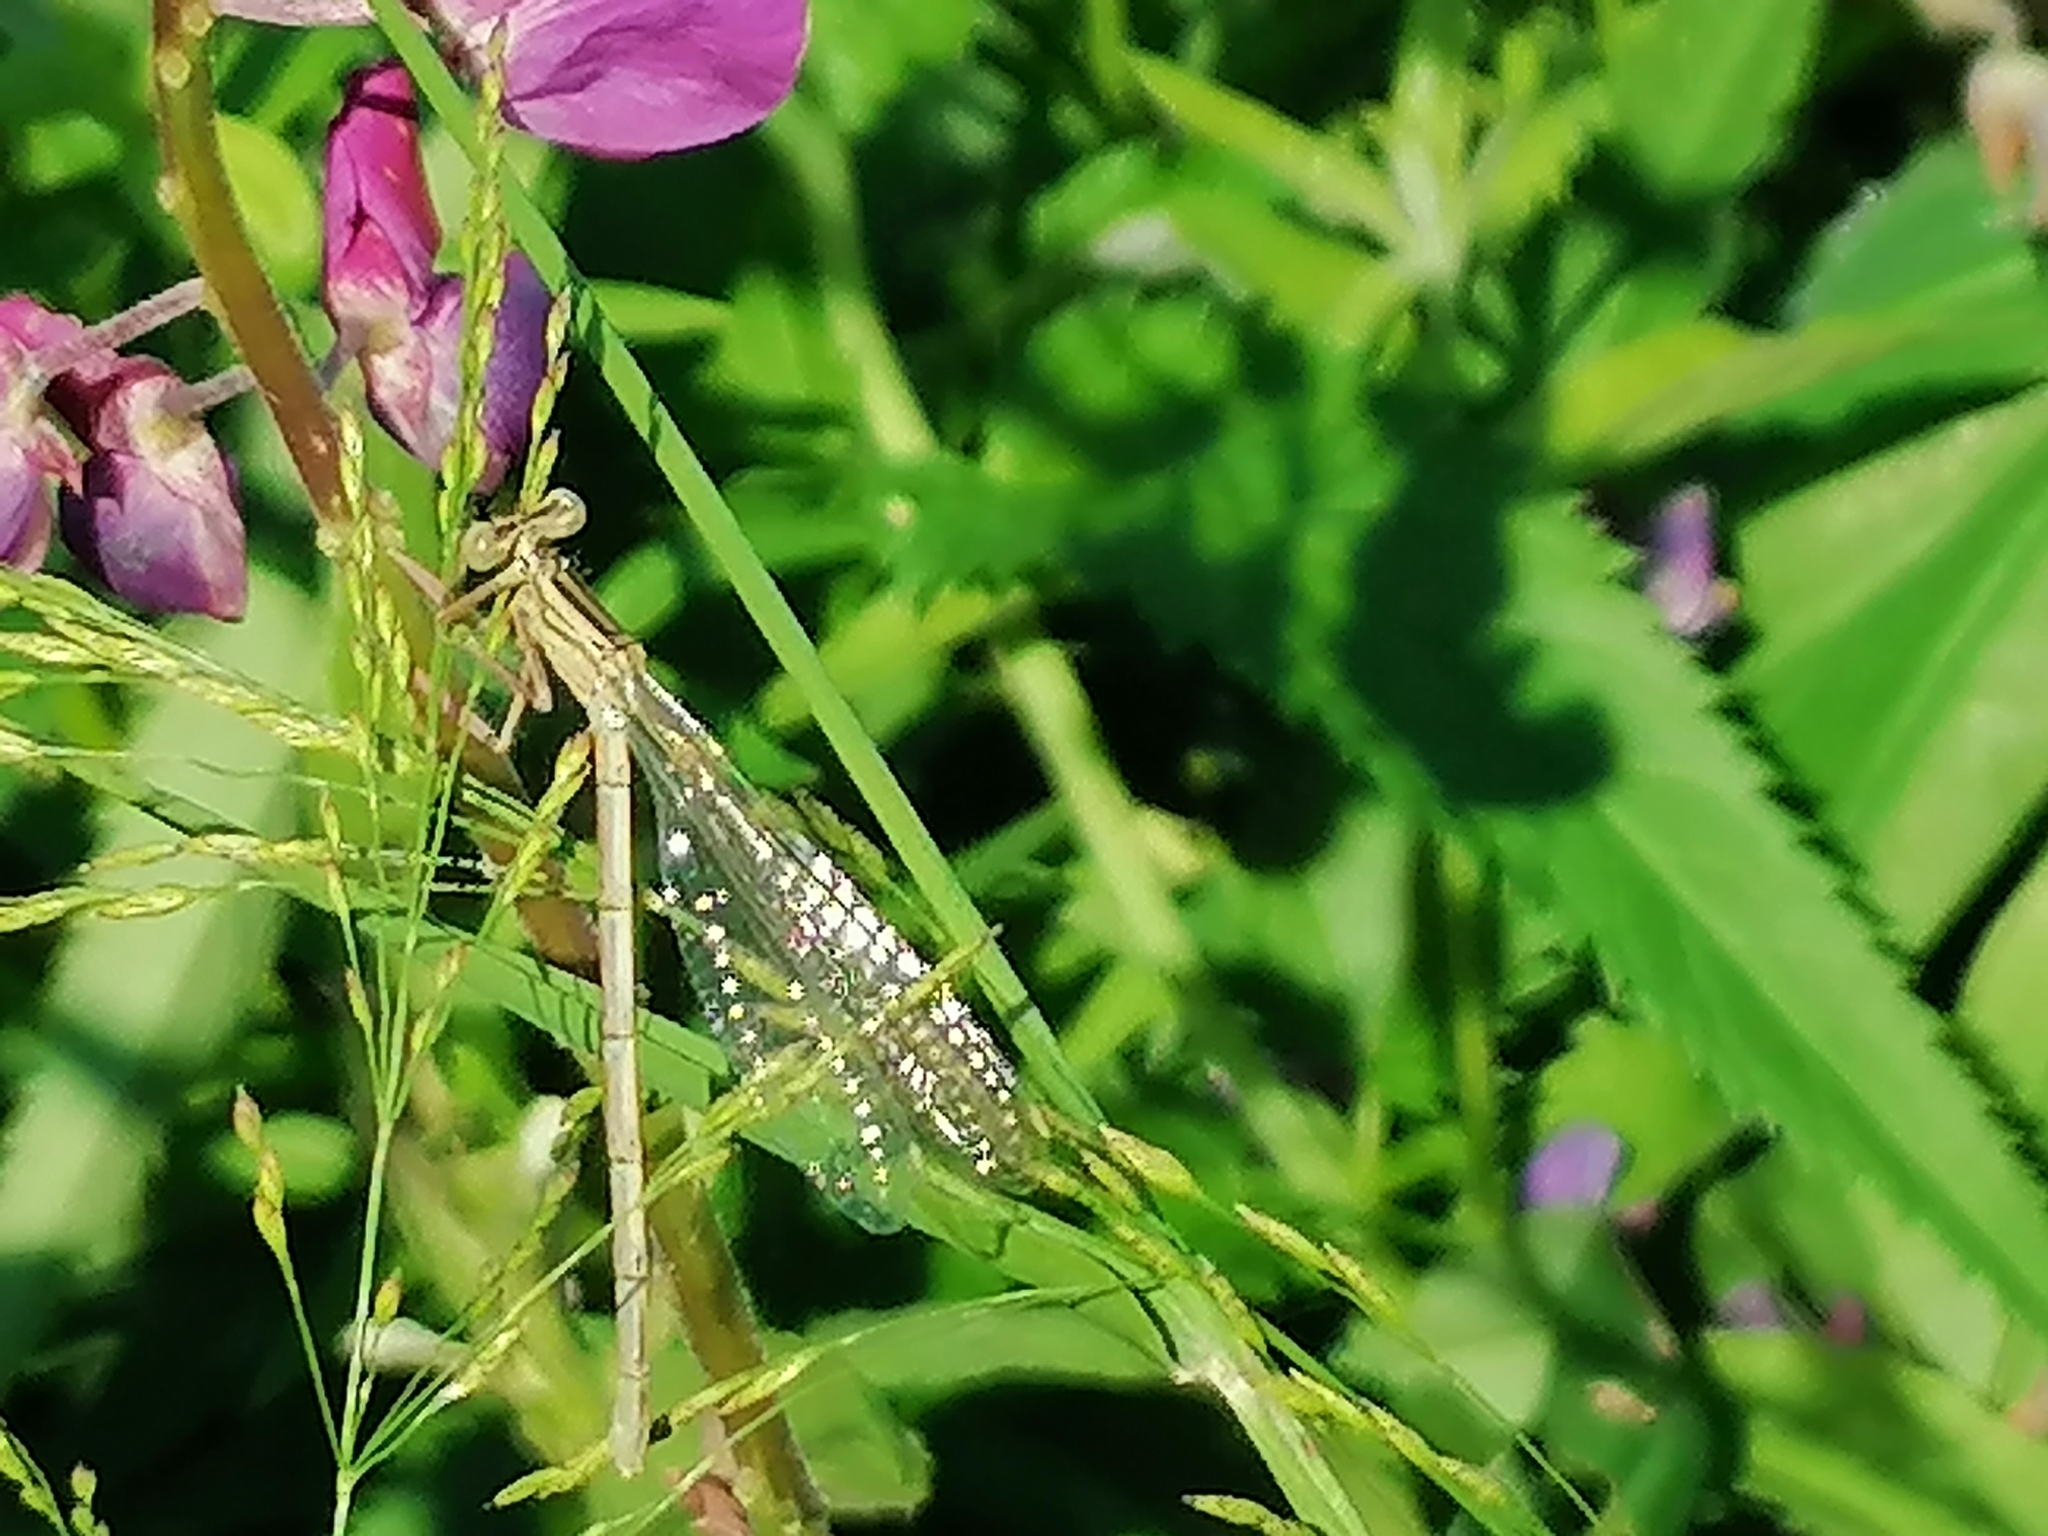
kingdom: Animalia
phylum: Arthropoda
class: Insecta
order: Odonata
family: Platycnemididae
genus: Platycnemis
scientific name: Platycnemis pennipes
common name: White-legged damselfly
